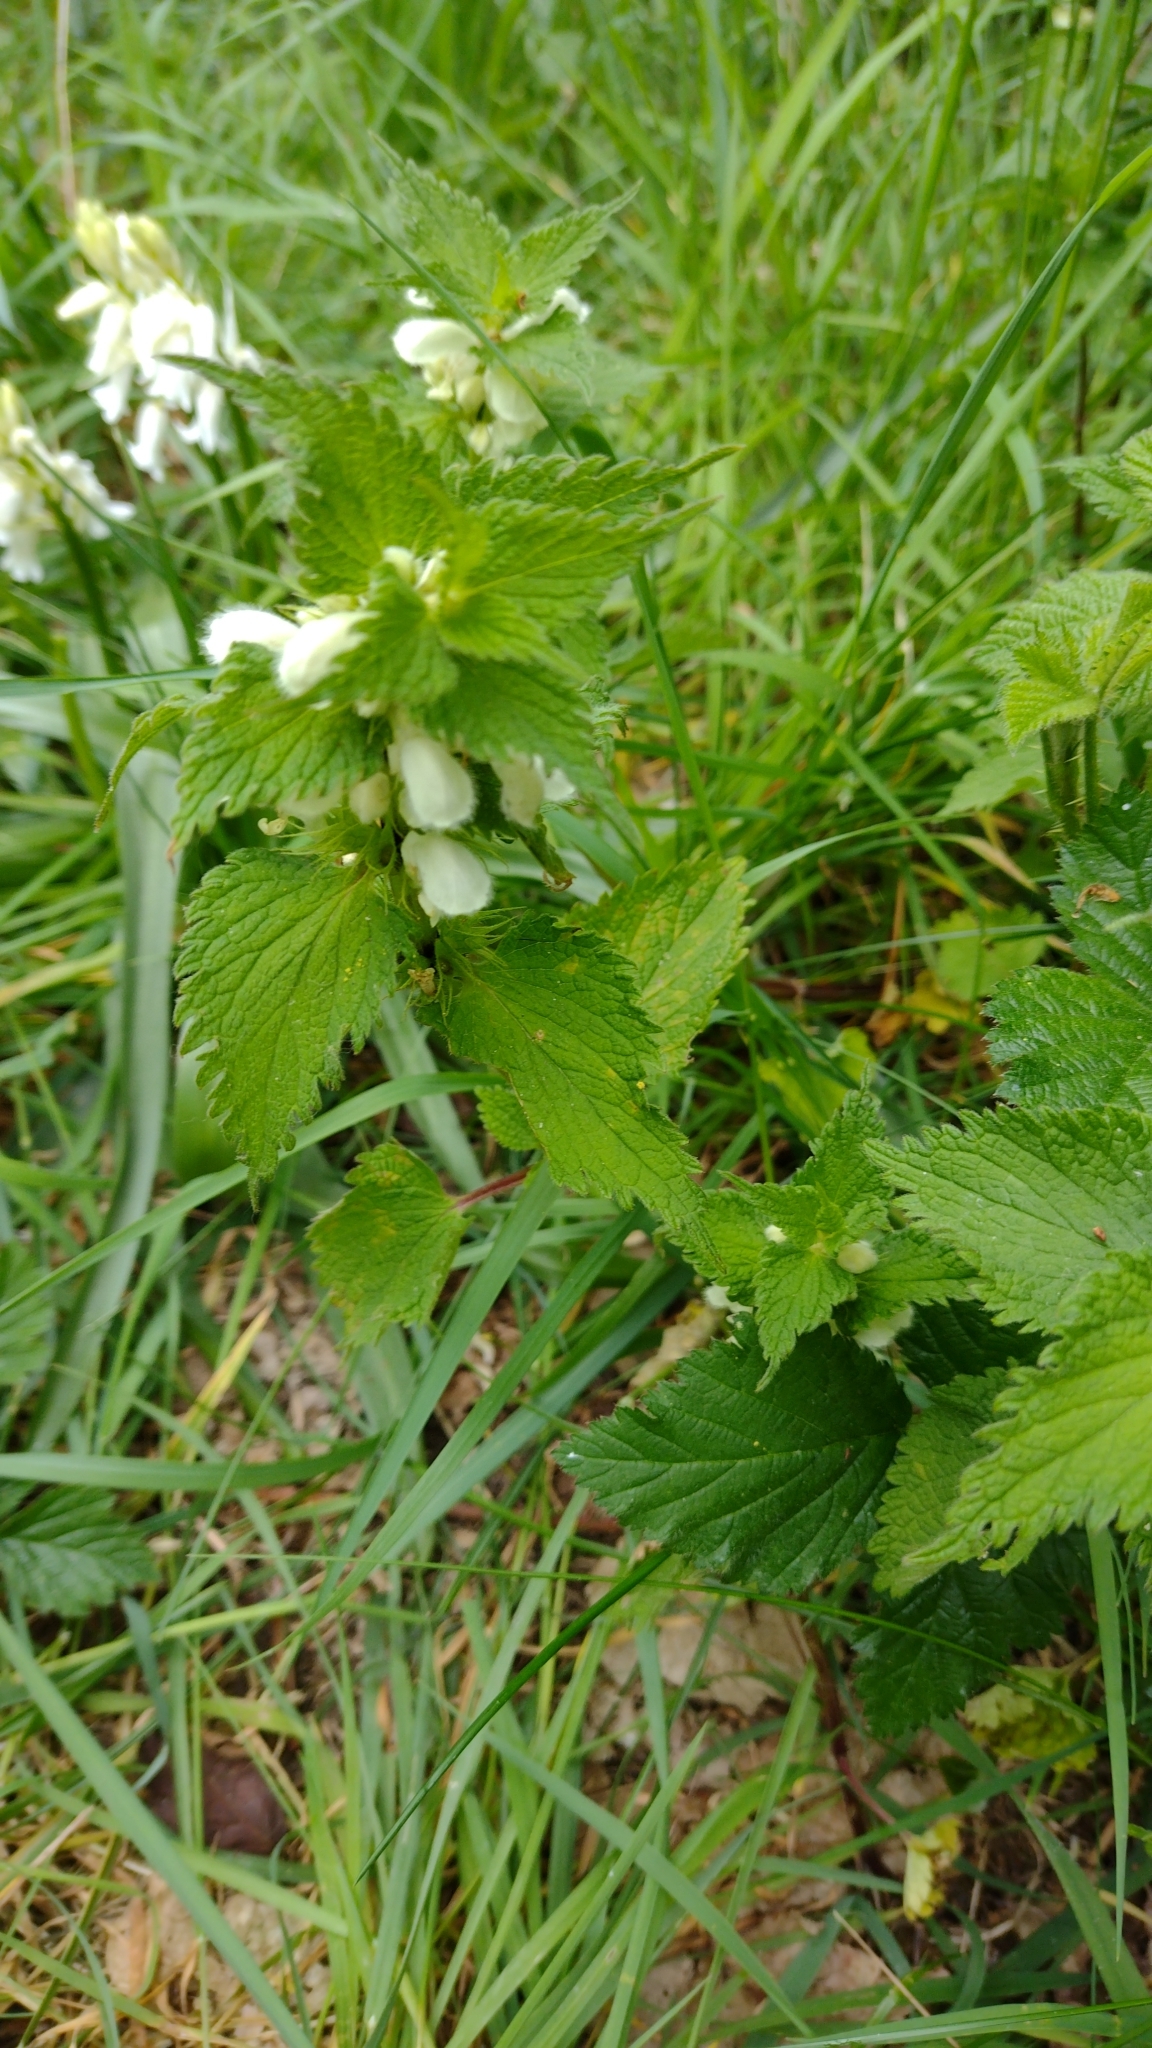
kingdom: Plantae
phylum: Tracheophyta
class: Magnoliopsida
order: Lamiales
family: Lamiaceae
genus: Lamium
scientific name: Lamium album
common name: White dead-nettle
